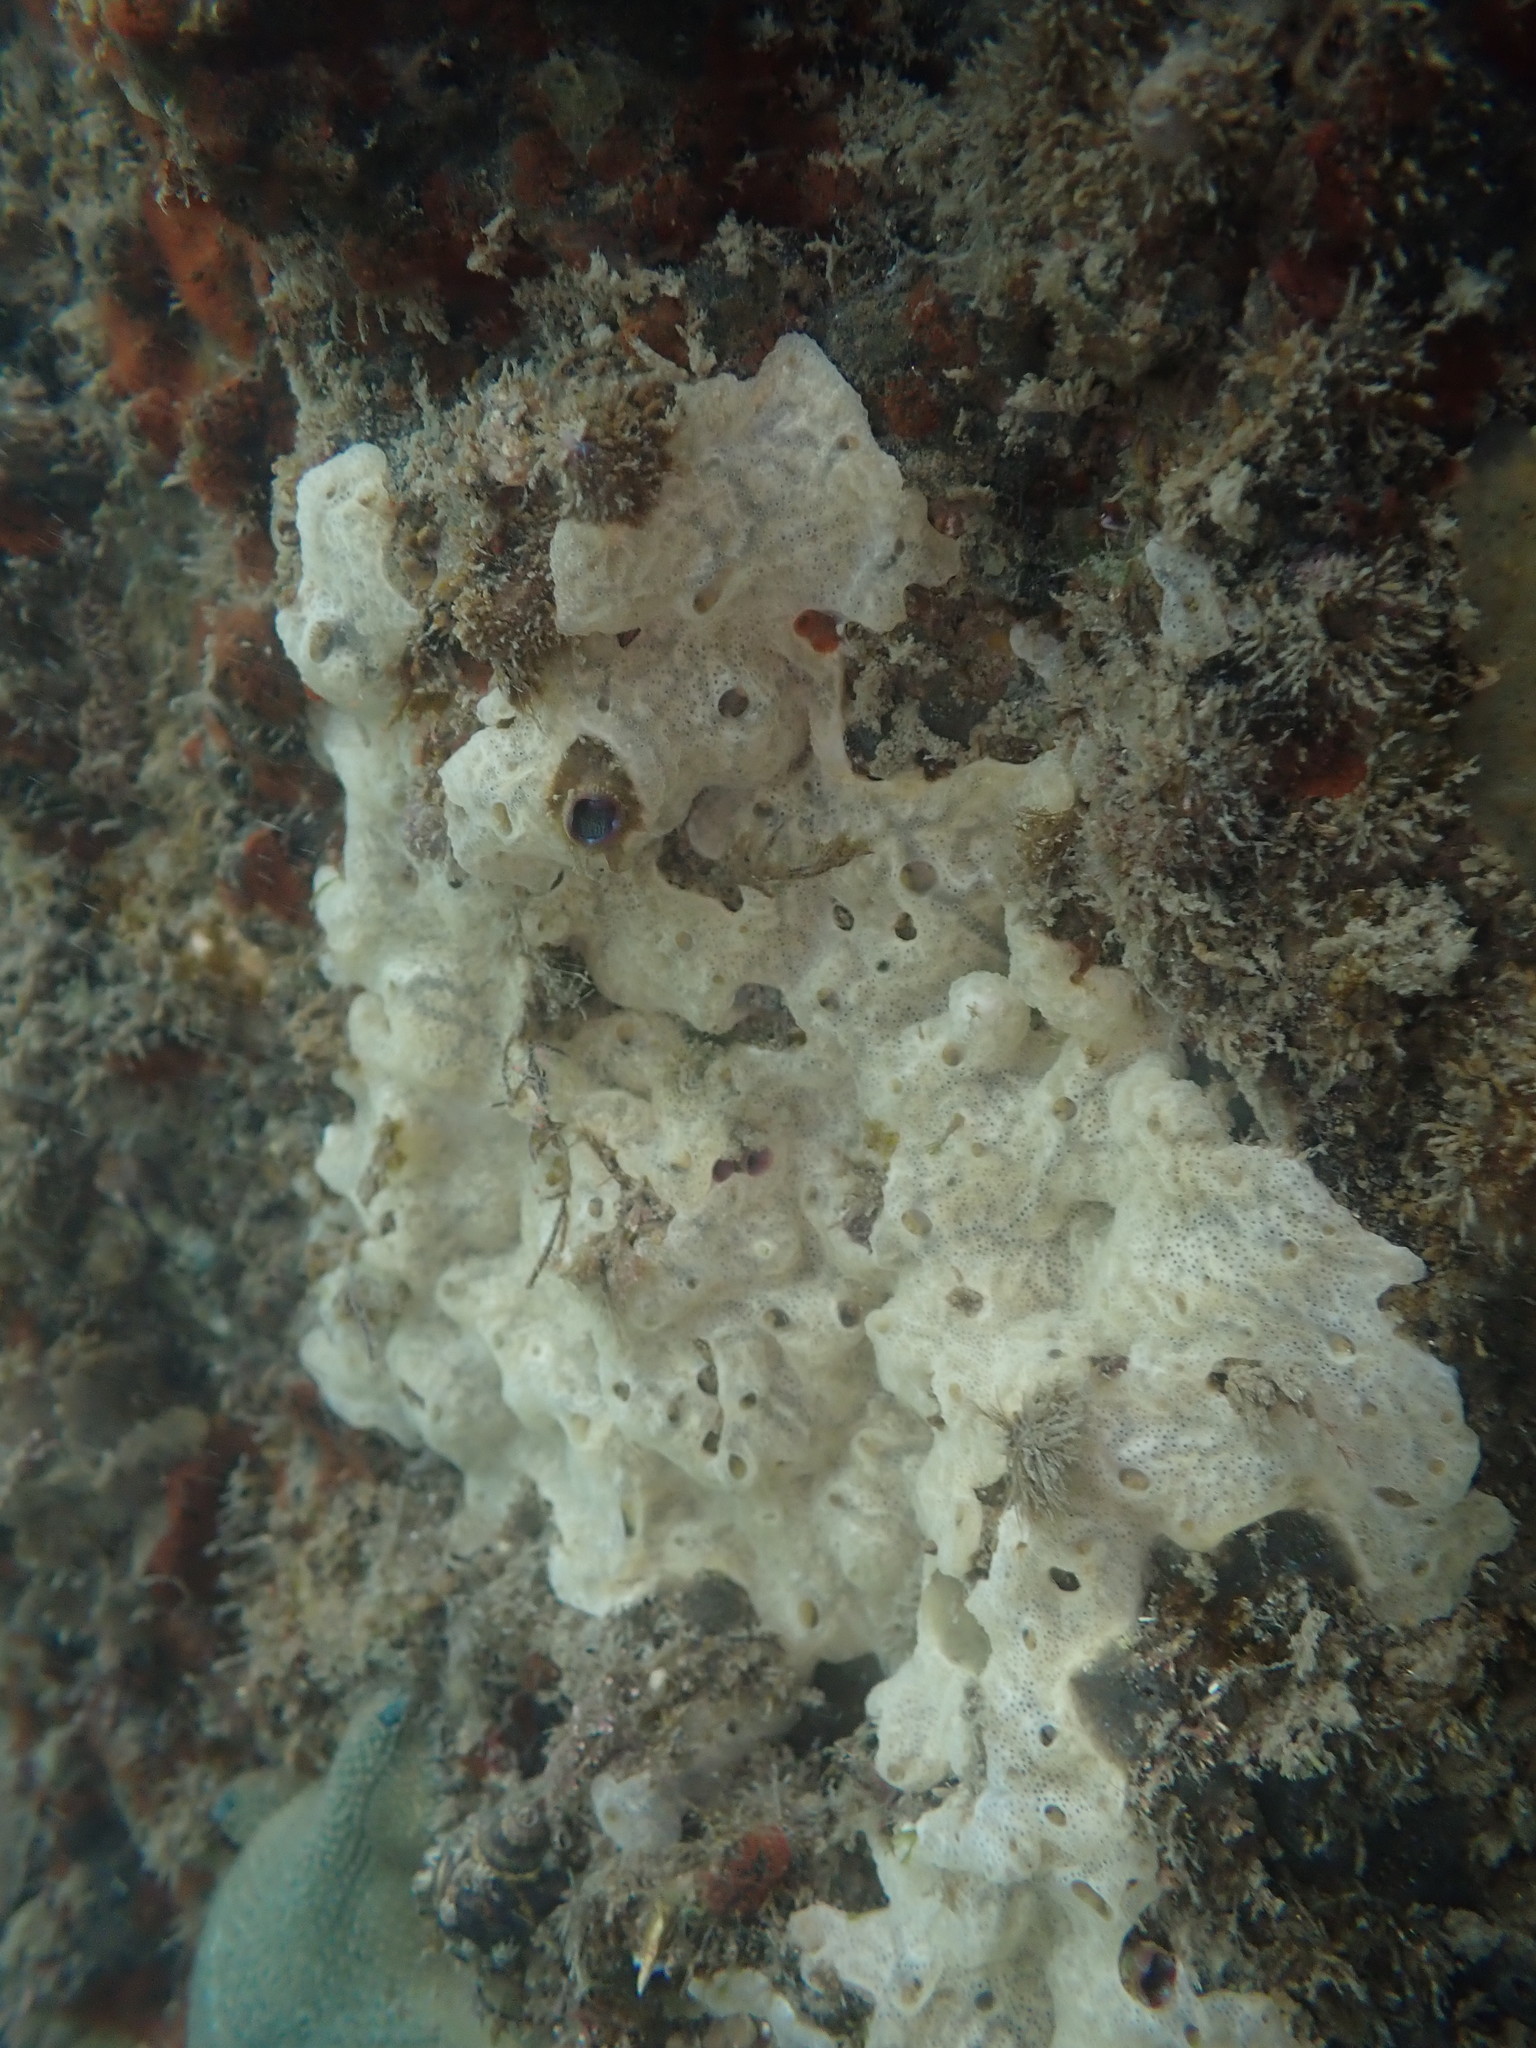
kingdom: Animalia
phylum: Chordata
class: Ascidiacea
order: Aplousobranchia
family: Didemnidae
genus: Lissoclinum
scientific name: Lissoclinum perforatum
